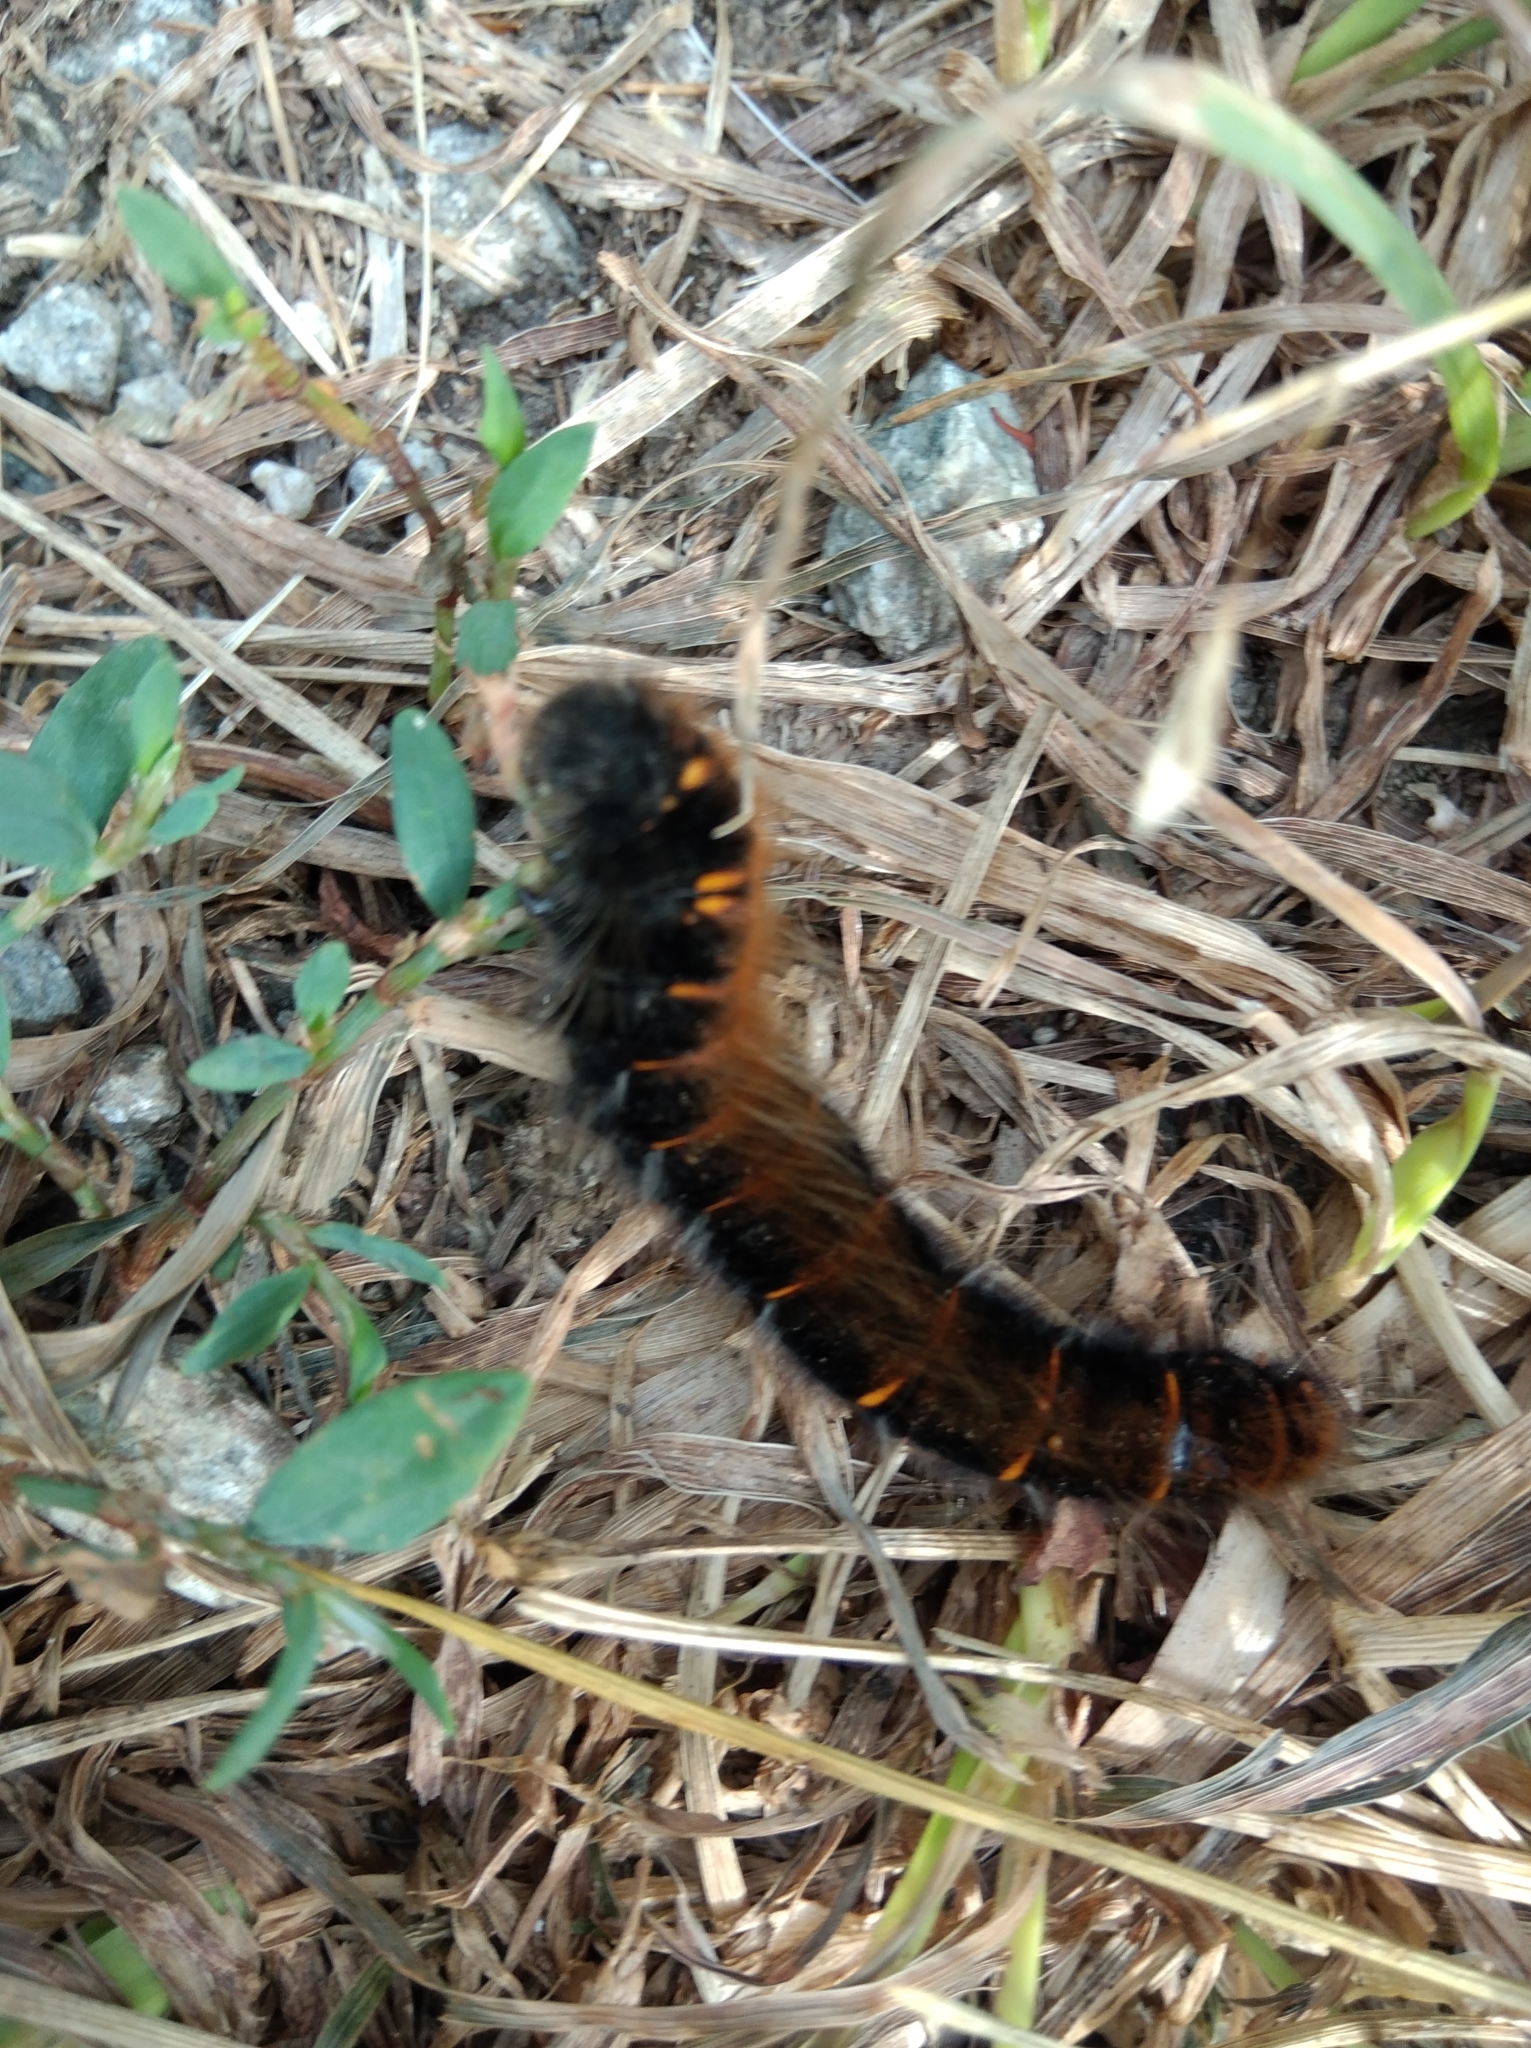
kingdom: Animalia
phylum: Arthropoda
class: Insecta
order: Lepidoptera
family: Lasiocampidae
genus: Macrothylacia
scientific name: Macrothylacia rubi
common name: Fox moth
